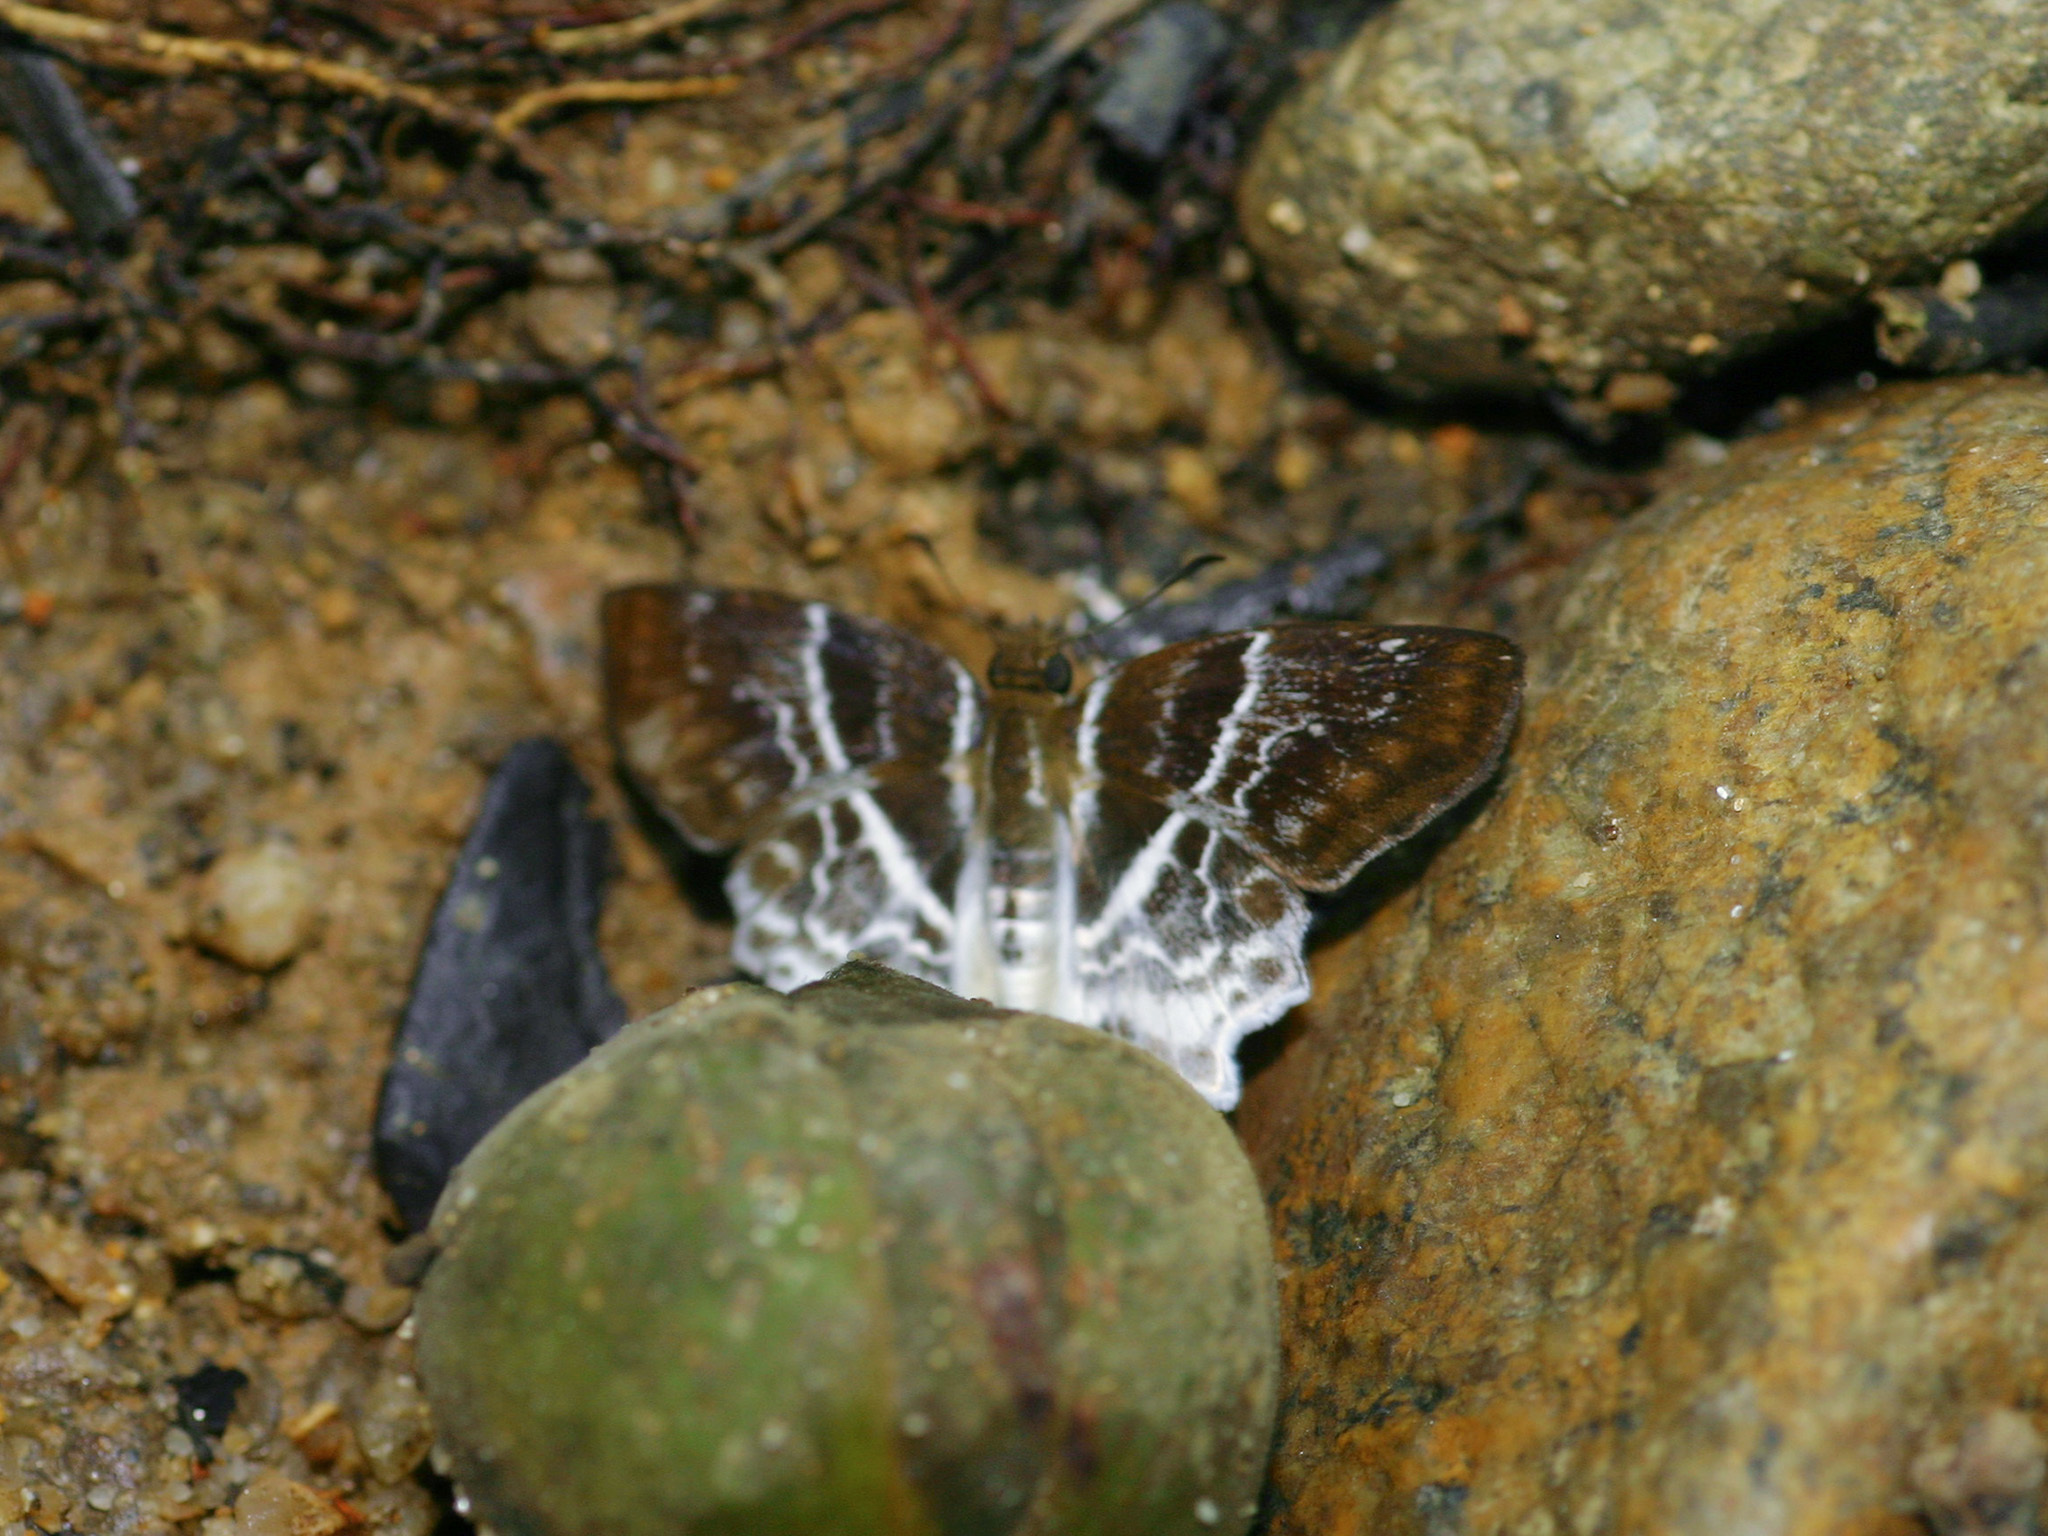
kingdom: Animalia
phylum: Arthropoda
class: Insecta
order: Lepidoptera
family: Hesperiidae
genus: Odontoptilum
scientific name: Odontoptilum pygela
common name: Banded angle
